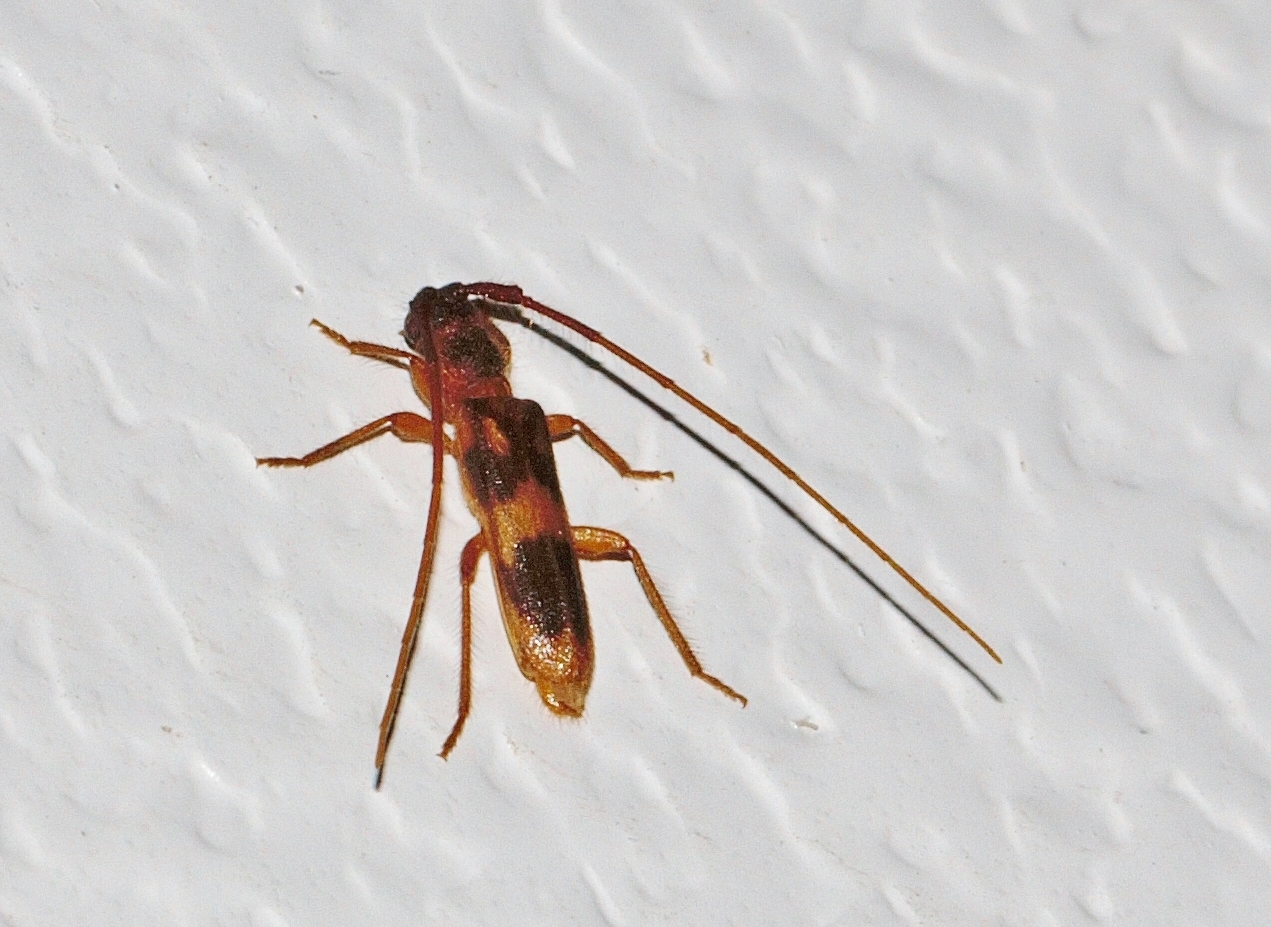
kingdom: Animalia
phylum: Arthropoda
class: Insecta
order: Coleoptera
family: Cerambycidae
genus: Catoeme
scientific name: Catoeme brincki
